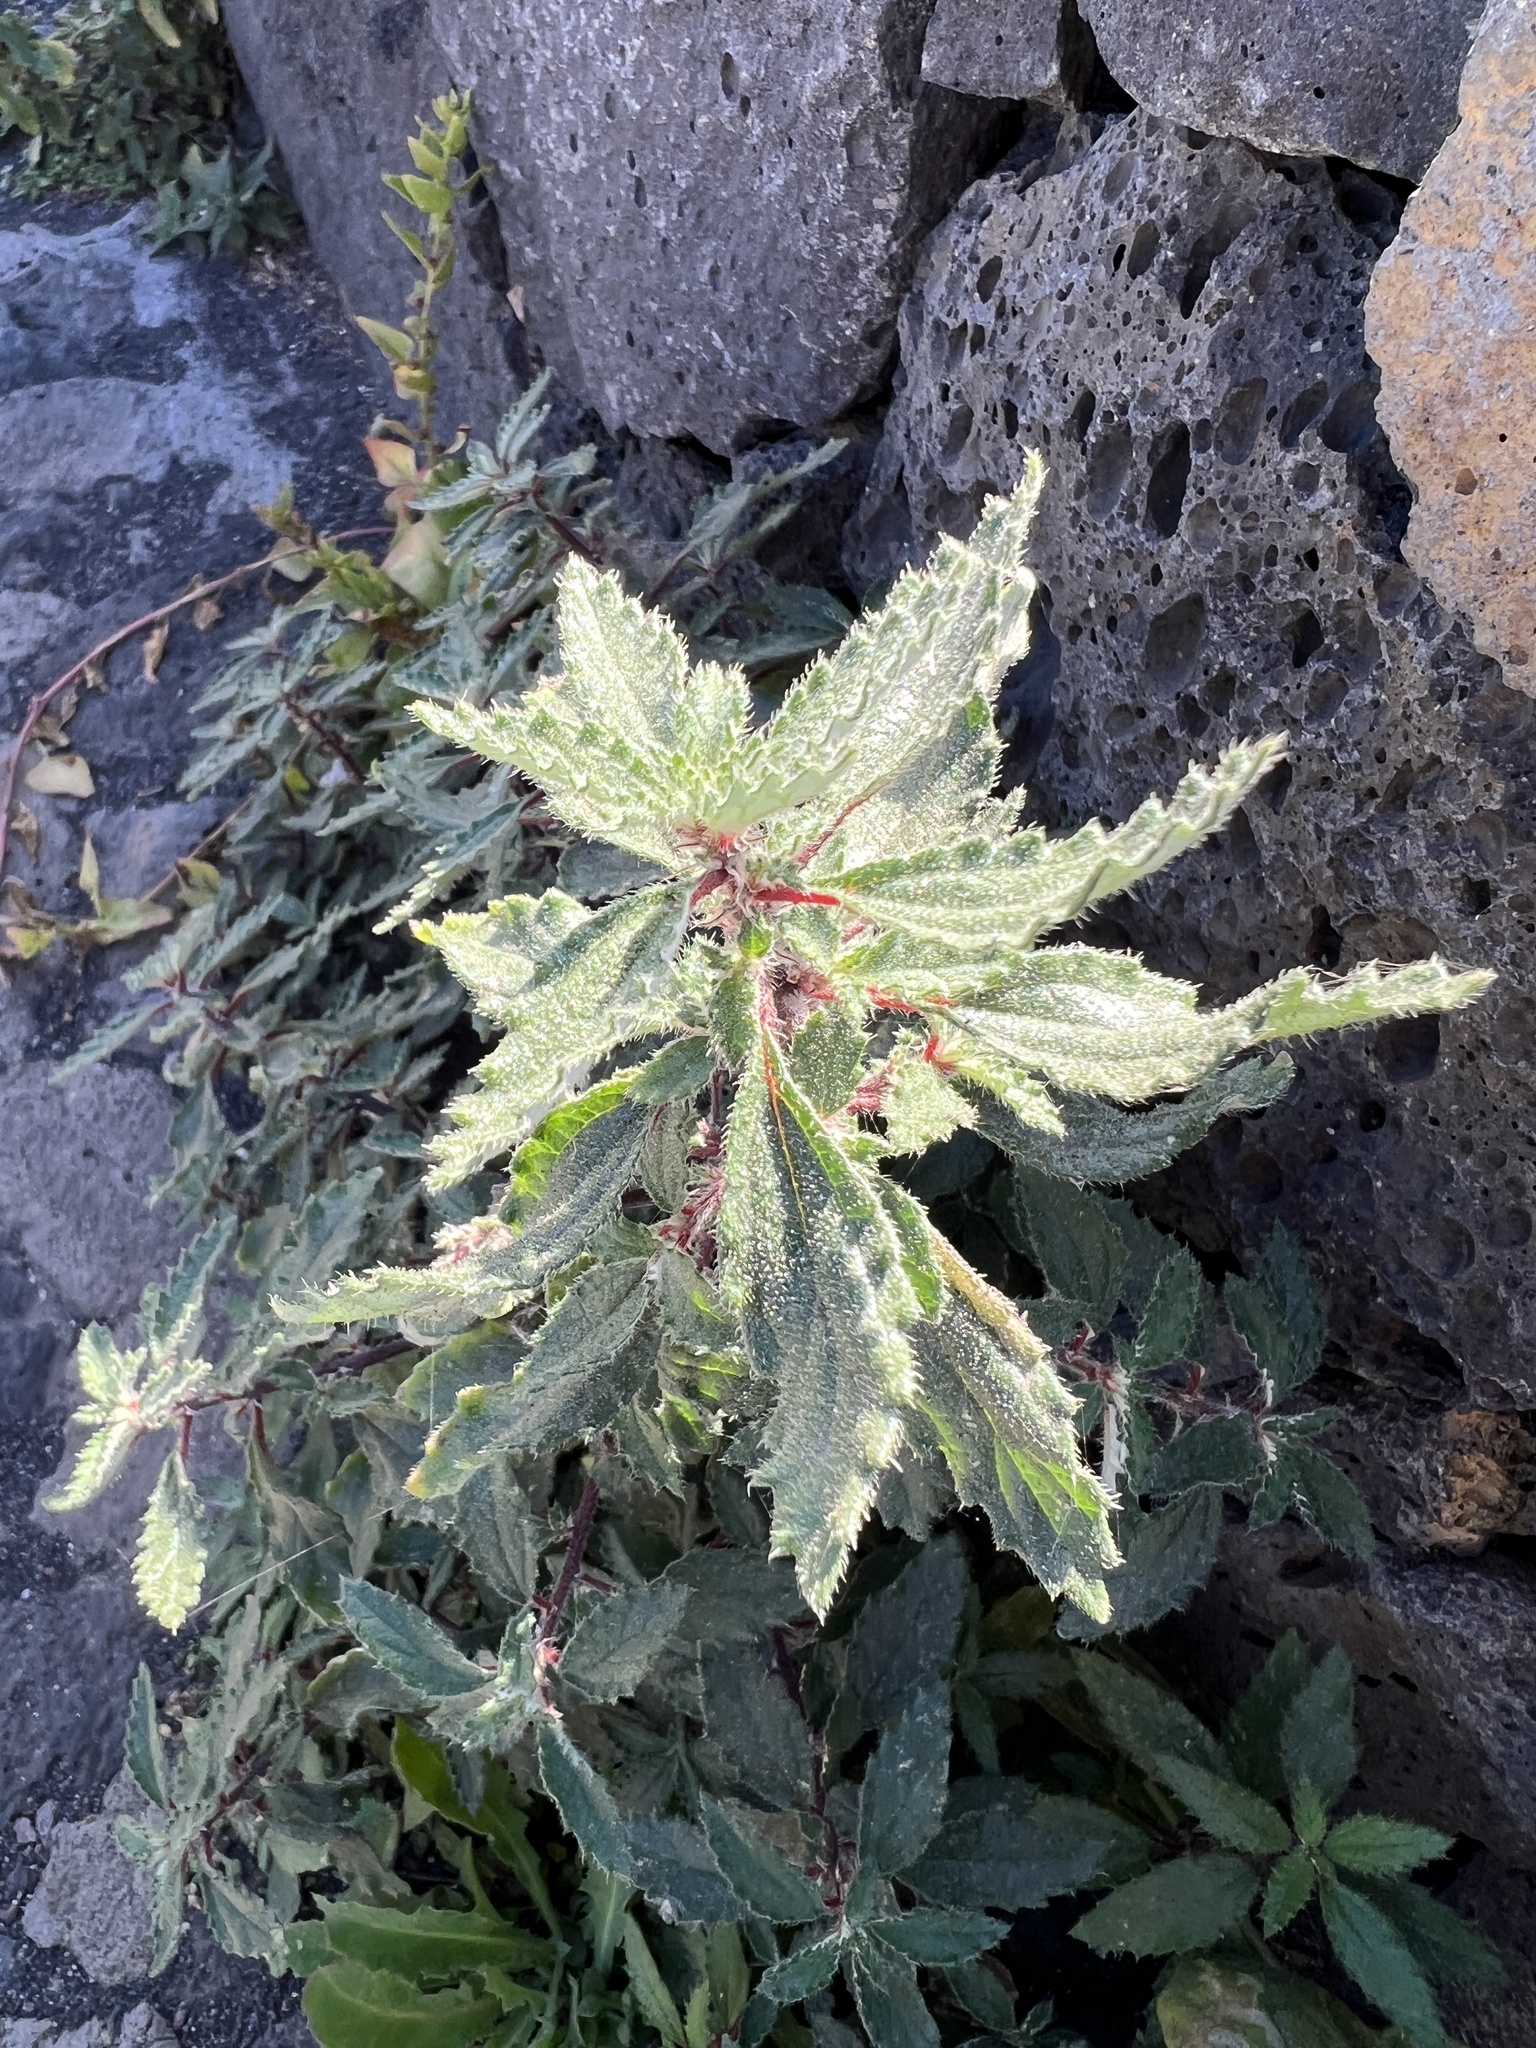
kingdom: Plantae
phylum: Tracheophyta
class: Magnoliopsida
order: Rosales
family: Urticaceae
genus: Forsskaolea
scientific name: Forsskaolea angustifolia
